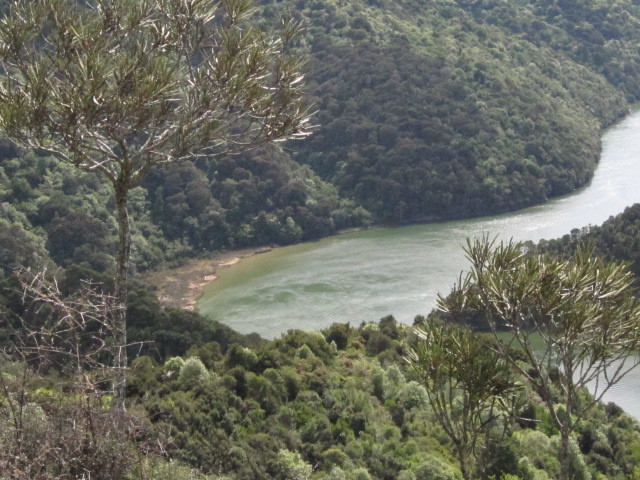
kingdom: Plantae
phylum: Tracheophyta
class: Magnoliopsida
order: Apiales
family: Araliaceae
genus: Pseudopanax
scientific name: Pseudopanax ferox
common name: Fierce lancewood
